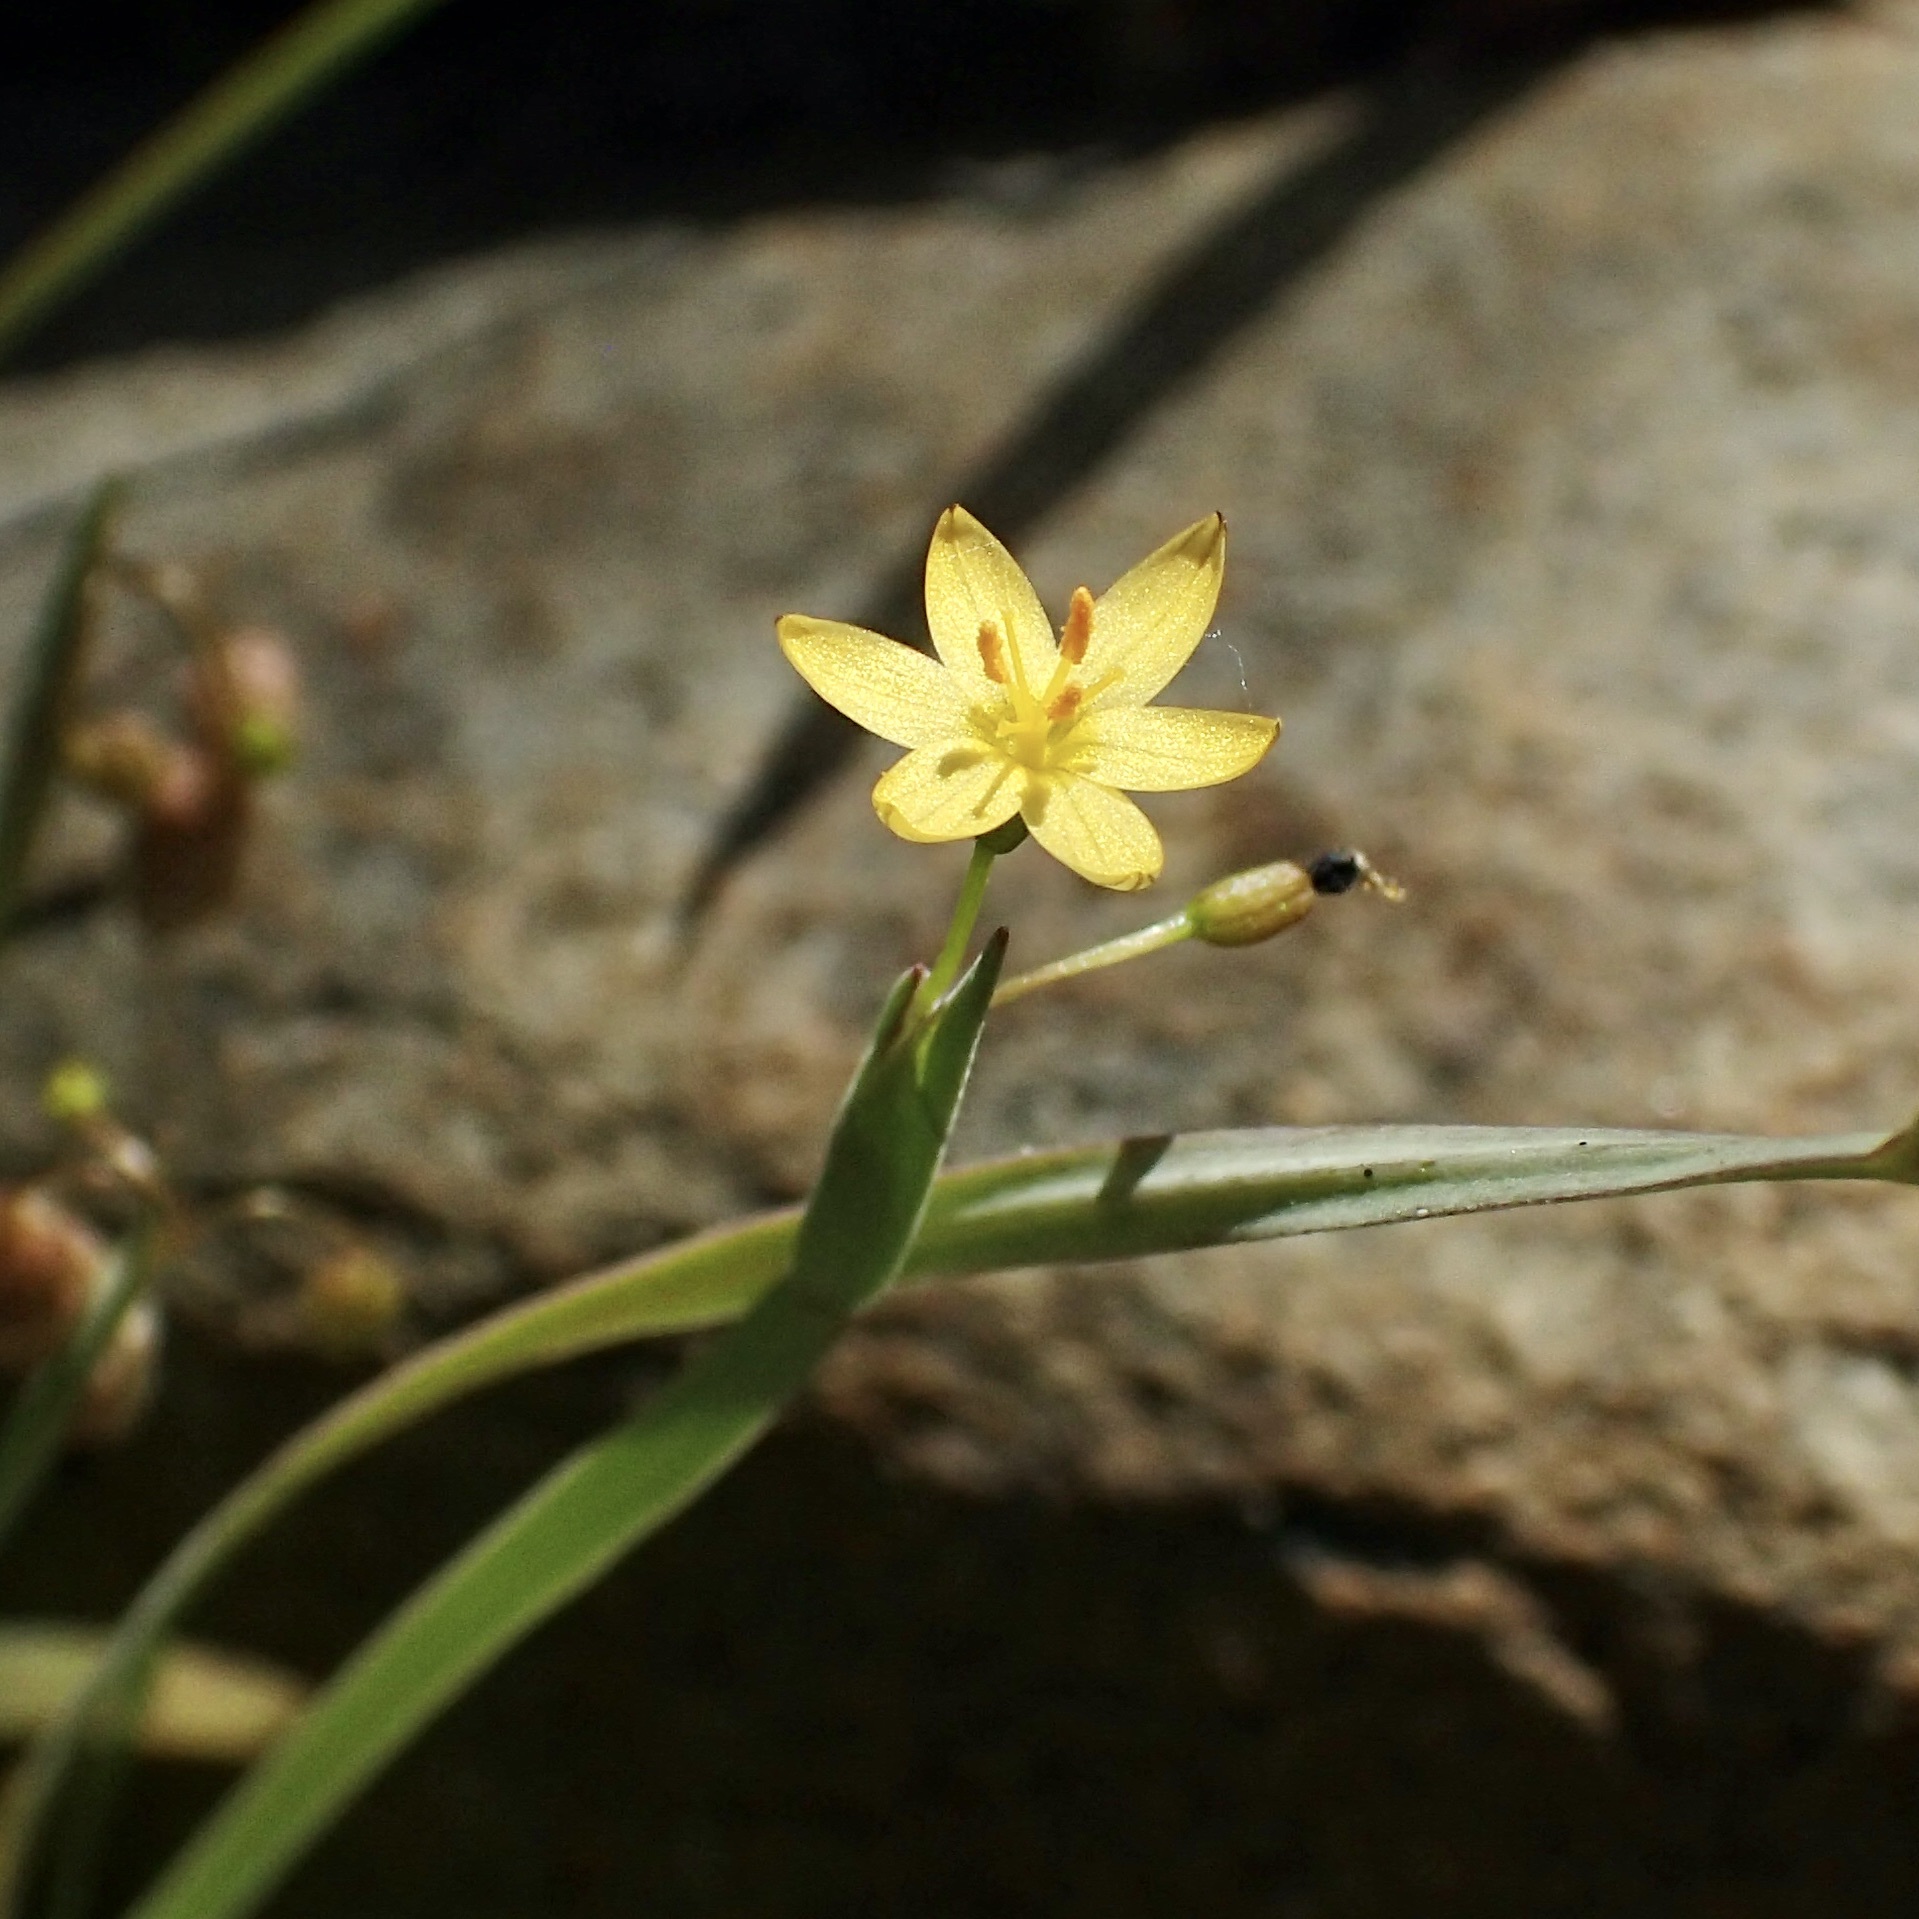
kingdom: Plantae
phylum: Tracheophyta
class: Liliopsida
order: Asparagales
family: Iridaceae
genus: Sisyrinchium
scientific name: Sisyrinchium cernuum
